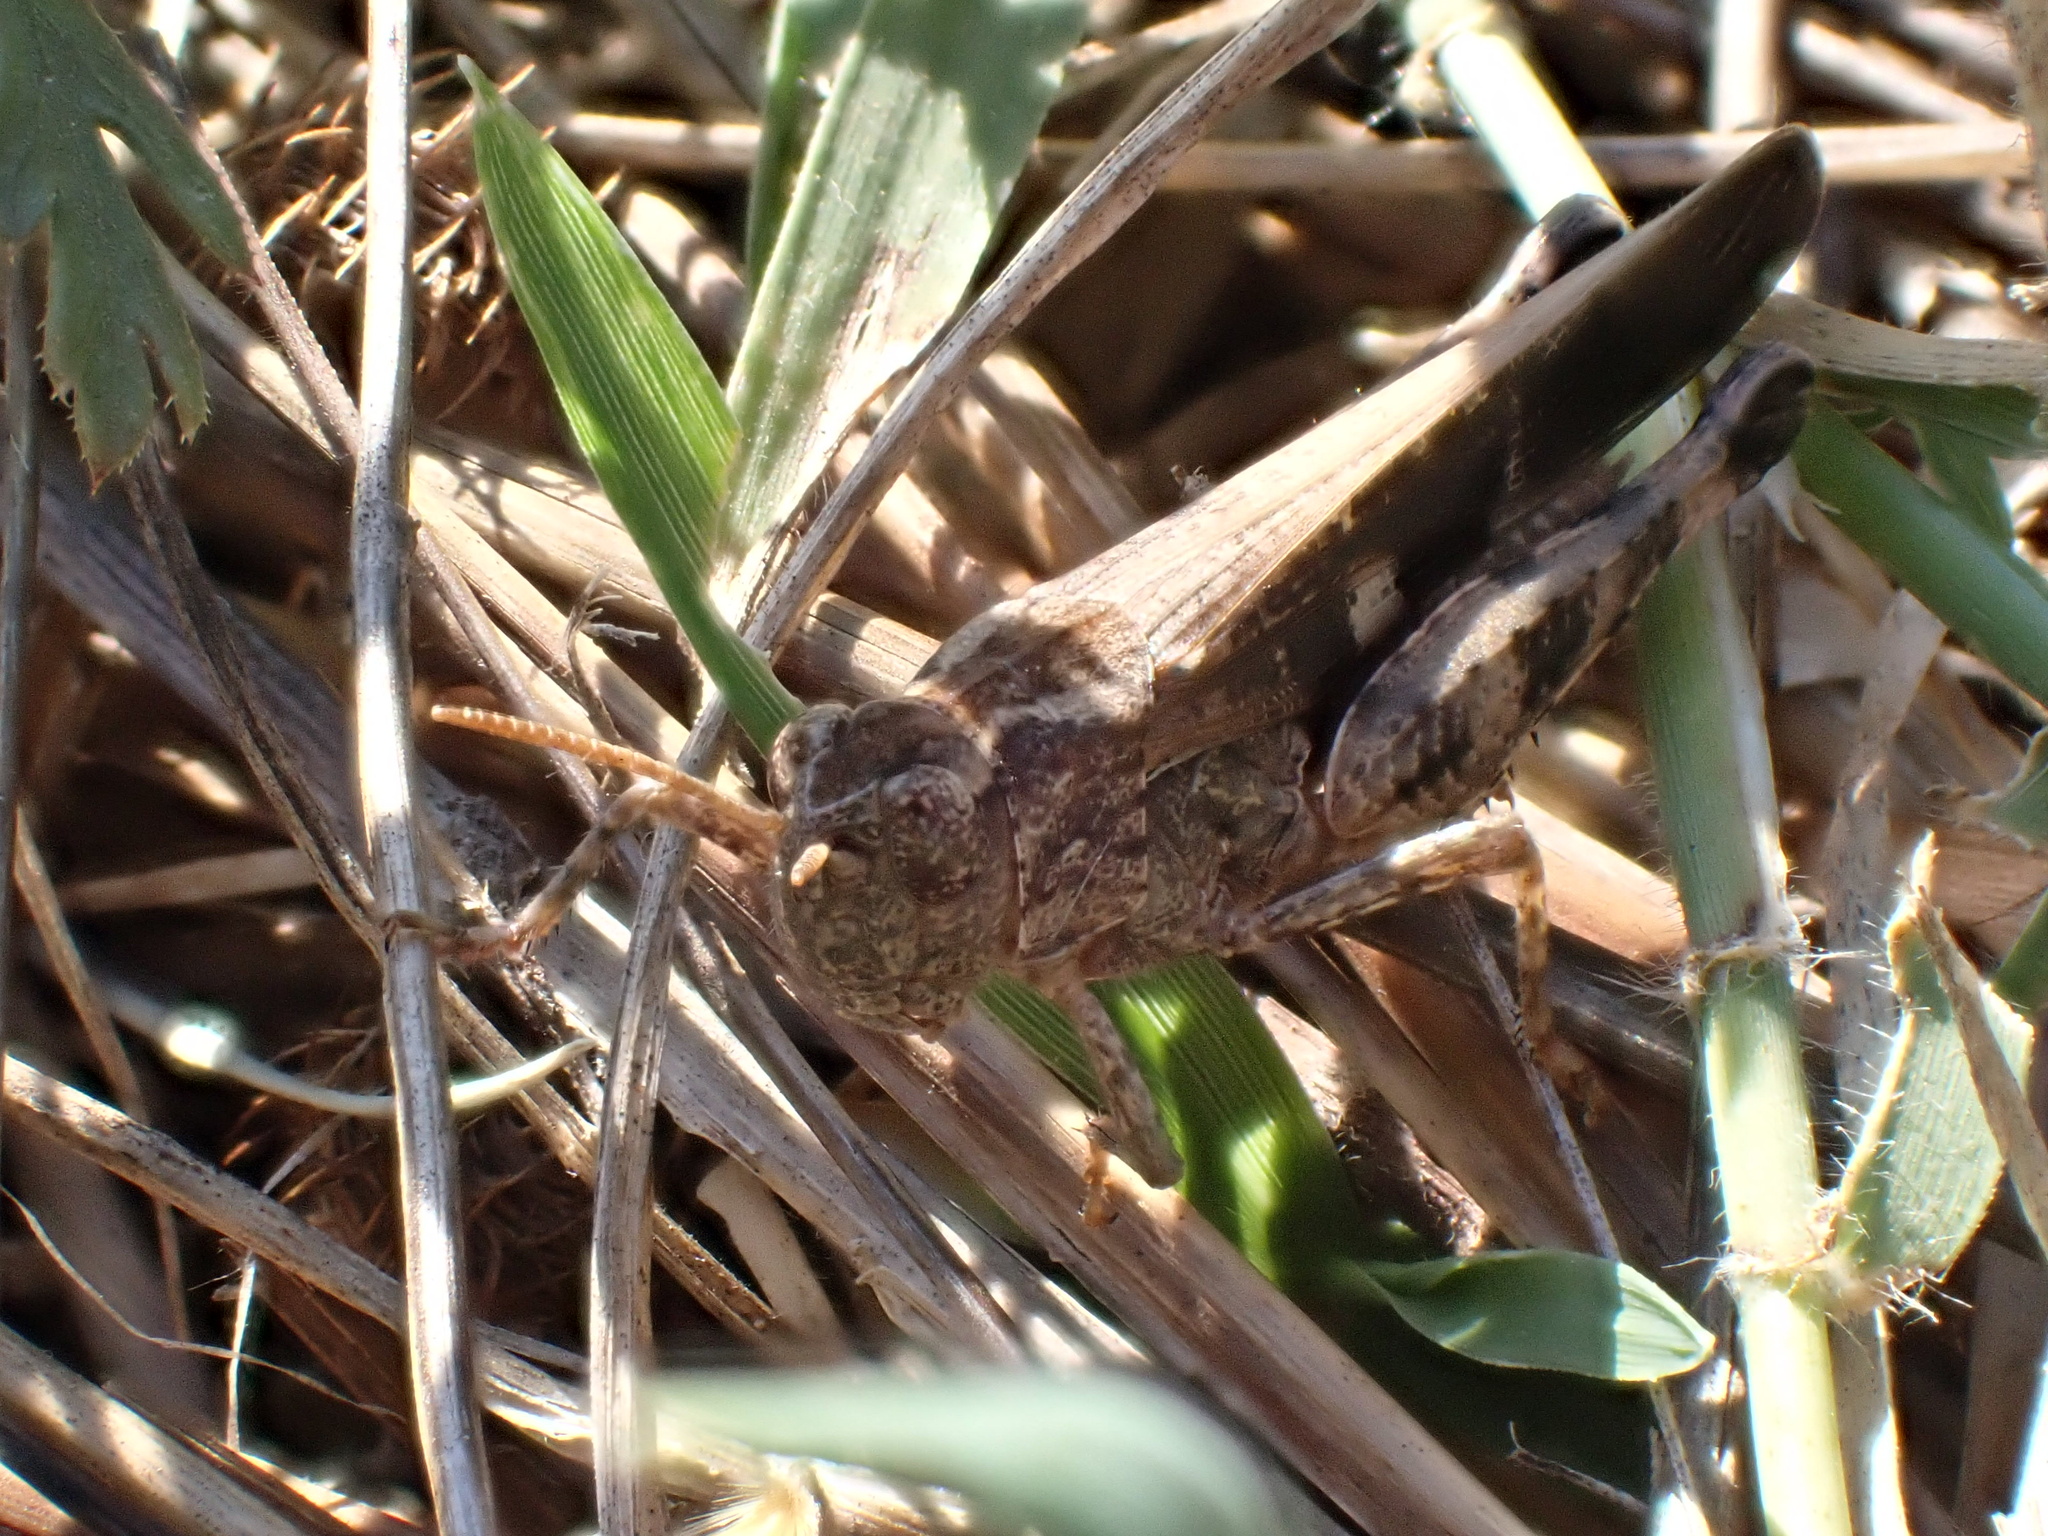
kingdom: Animalia
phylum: Arthropoda
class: Insecta
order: Orthoptera
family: Acrididae
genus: Aiolopus
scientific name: Aiolopus strepens
